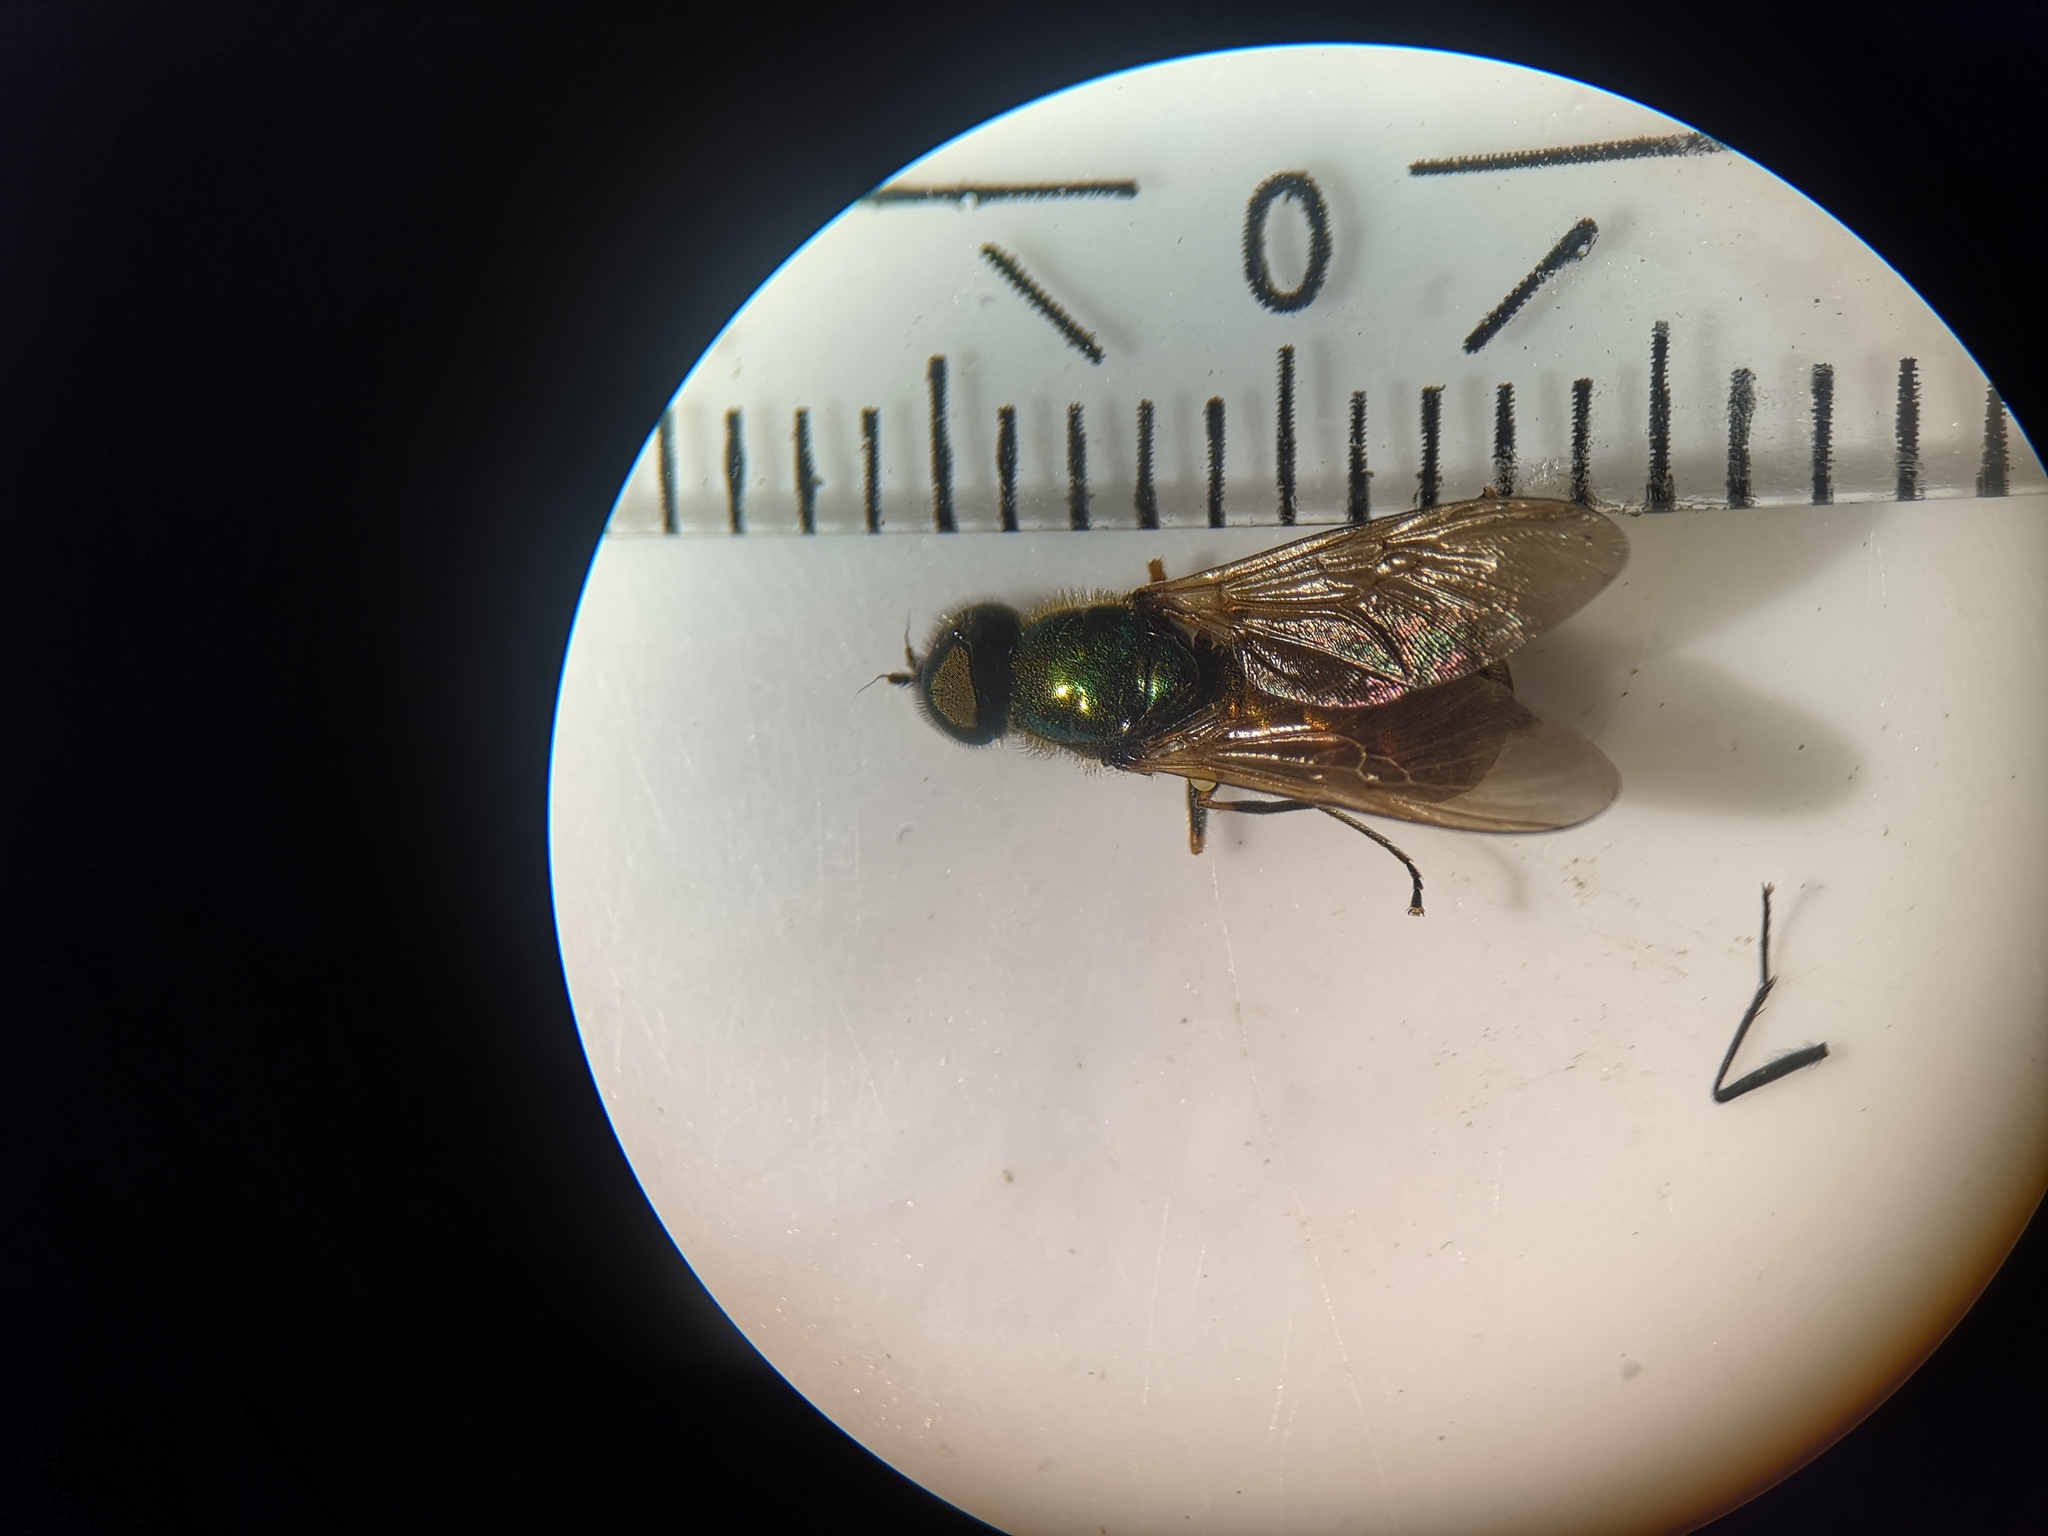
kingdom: Animalia
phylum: Arthropoda
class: Insecta
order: Diptera
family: Stratiomyidae
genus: Chloromyia
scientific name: Chloromyia formosa
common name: Soldier fly
